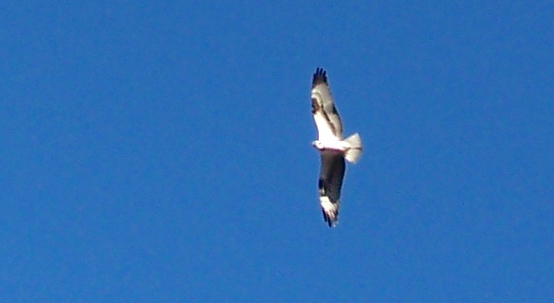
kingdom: Animalia
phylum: Chordata
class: Aves
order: Accipitriformes
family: Pandionidae
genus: Pandion
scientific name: Pandion haliaetus
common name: Osprey
